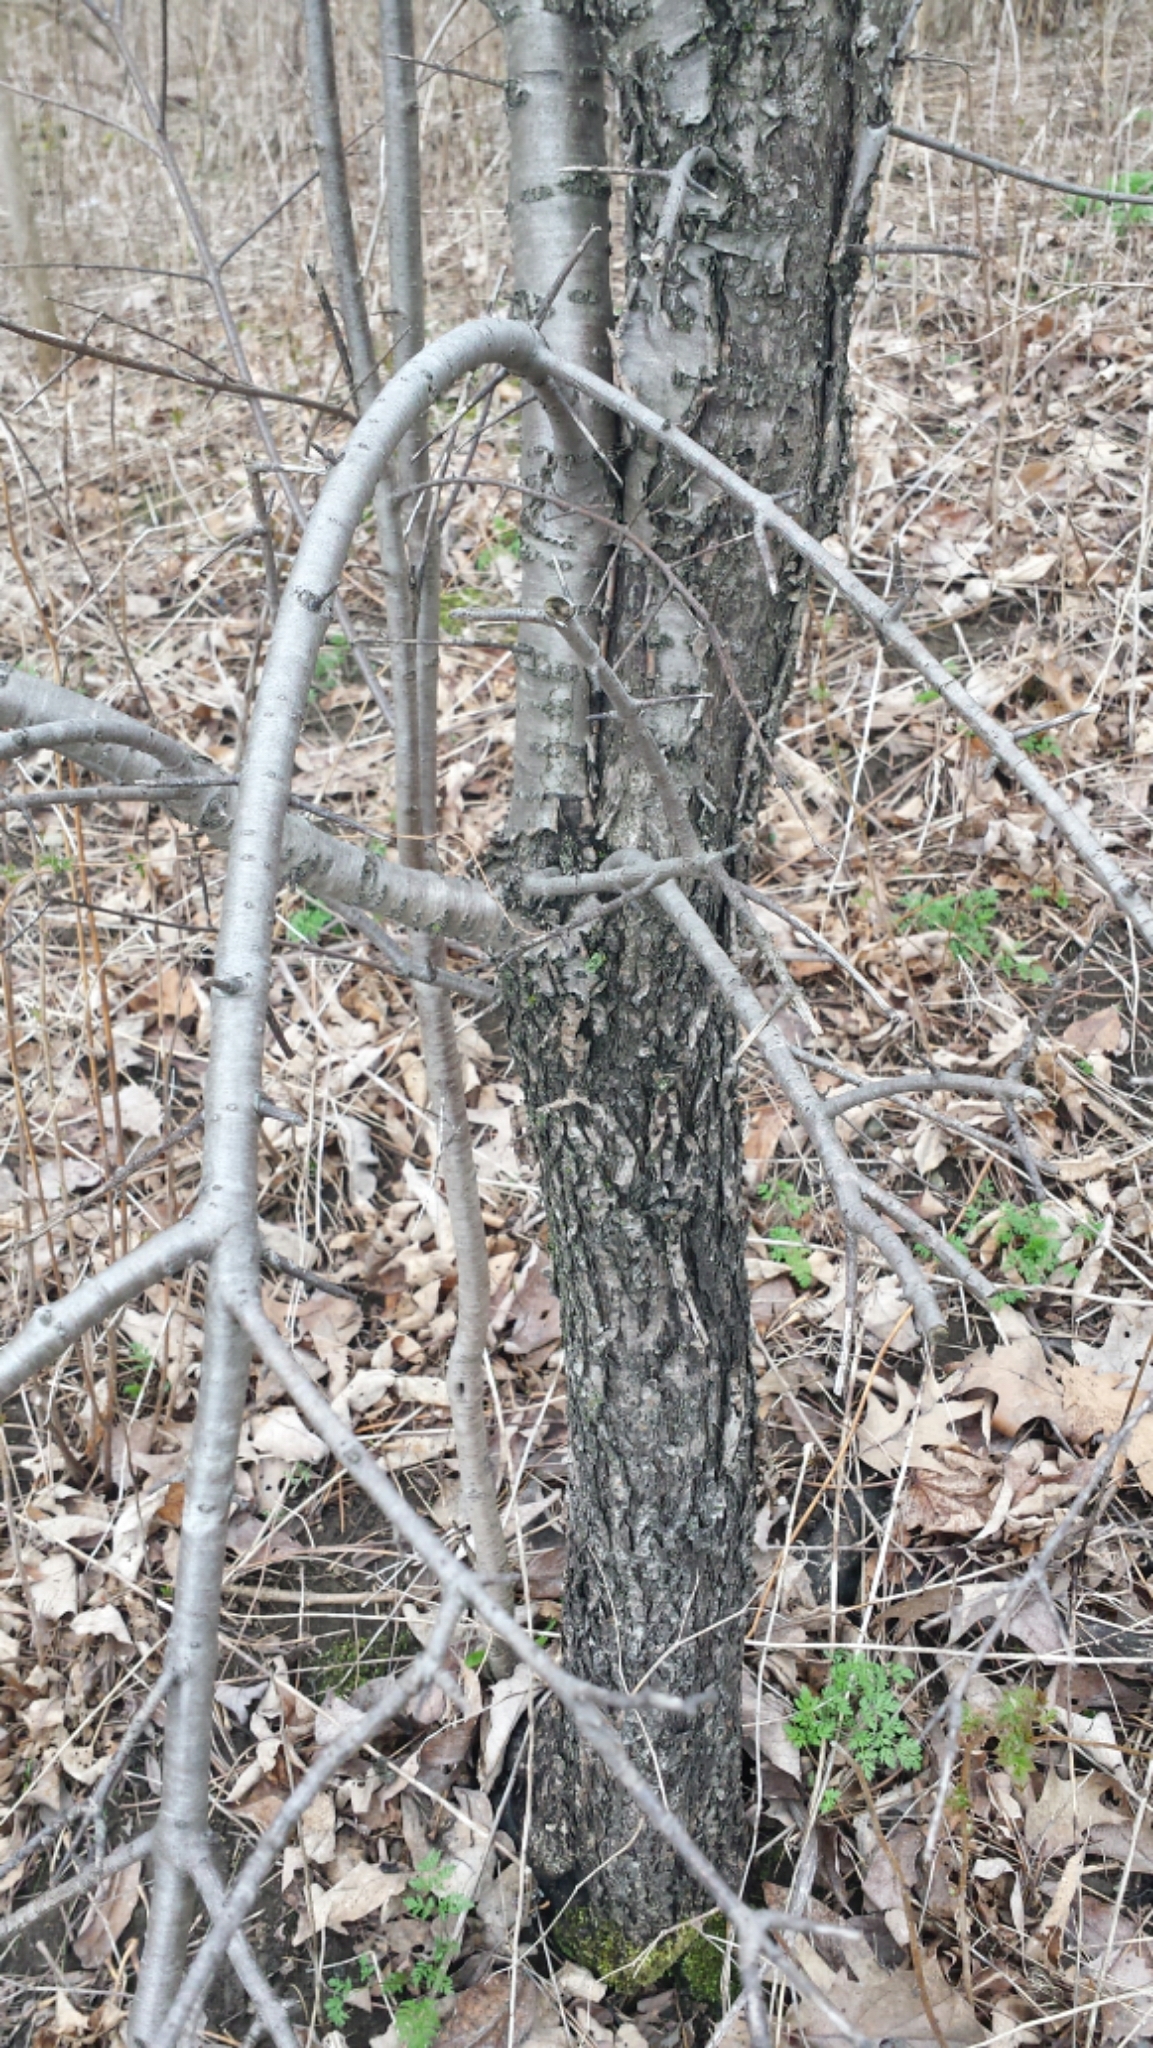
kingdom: Plantae
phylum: Tracheophyta
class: Magnoliopsida
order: Rosales
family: Rhamnaceae
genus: Rhamnus
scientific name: Rhamnus cathartica
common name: Common buckthorn
